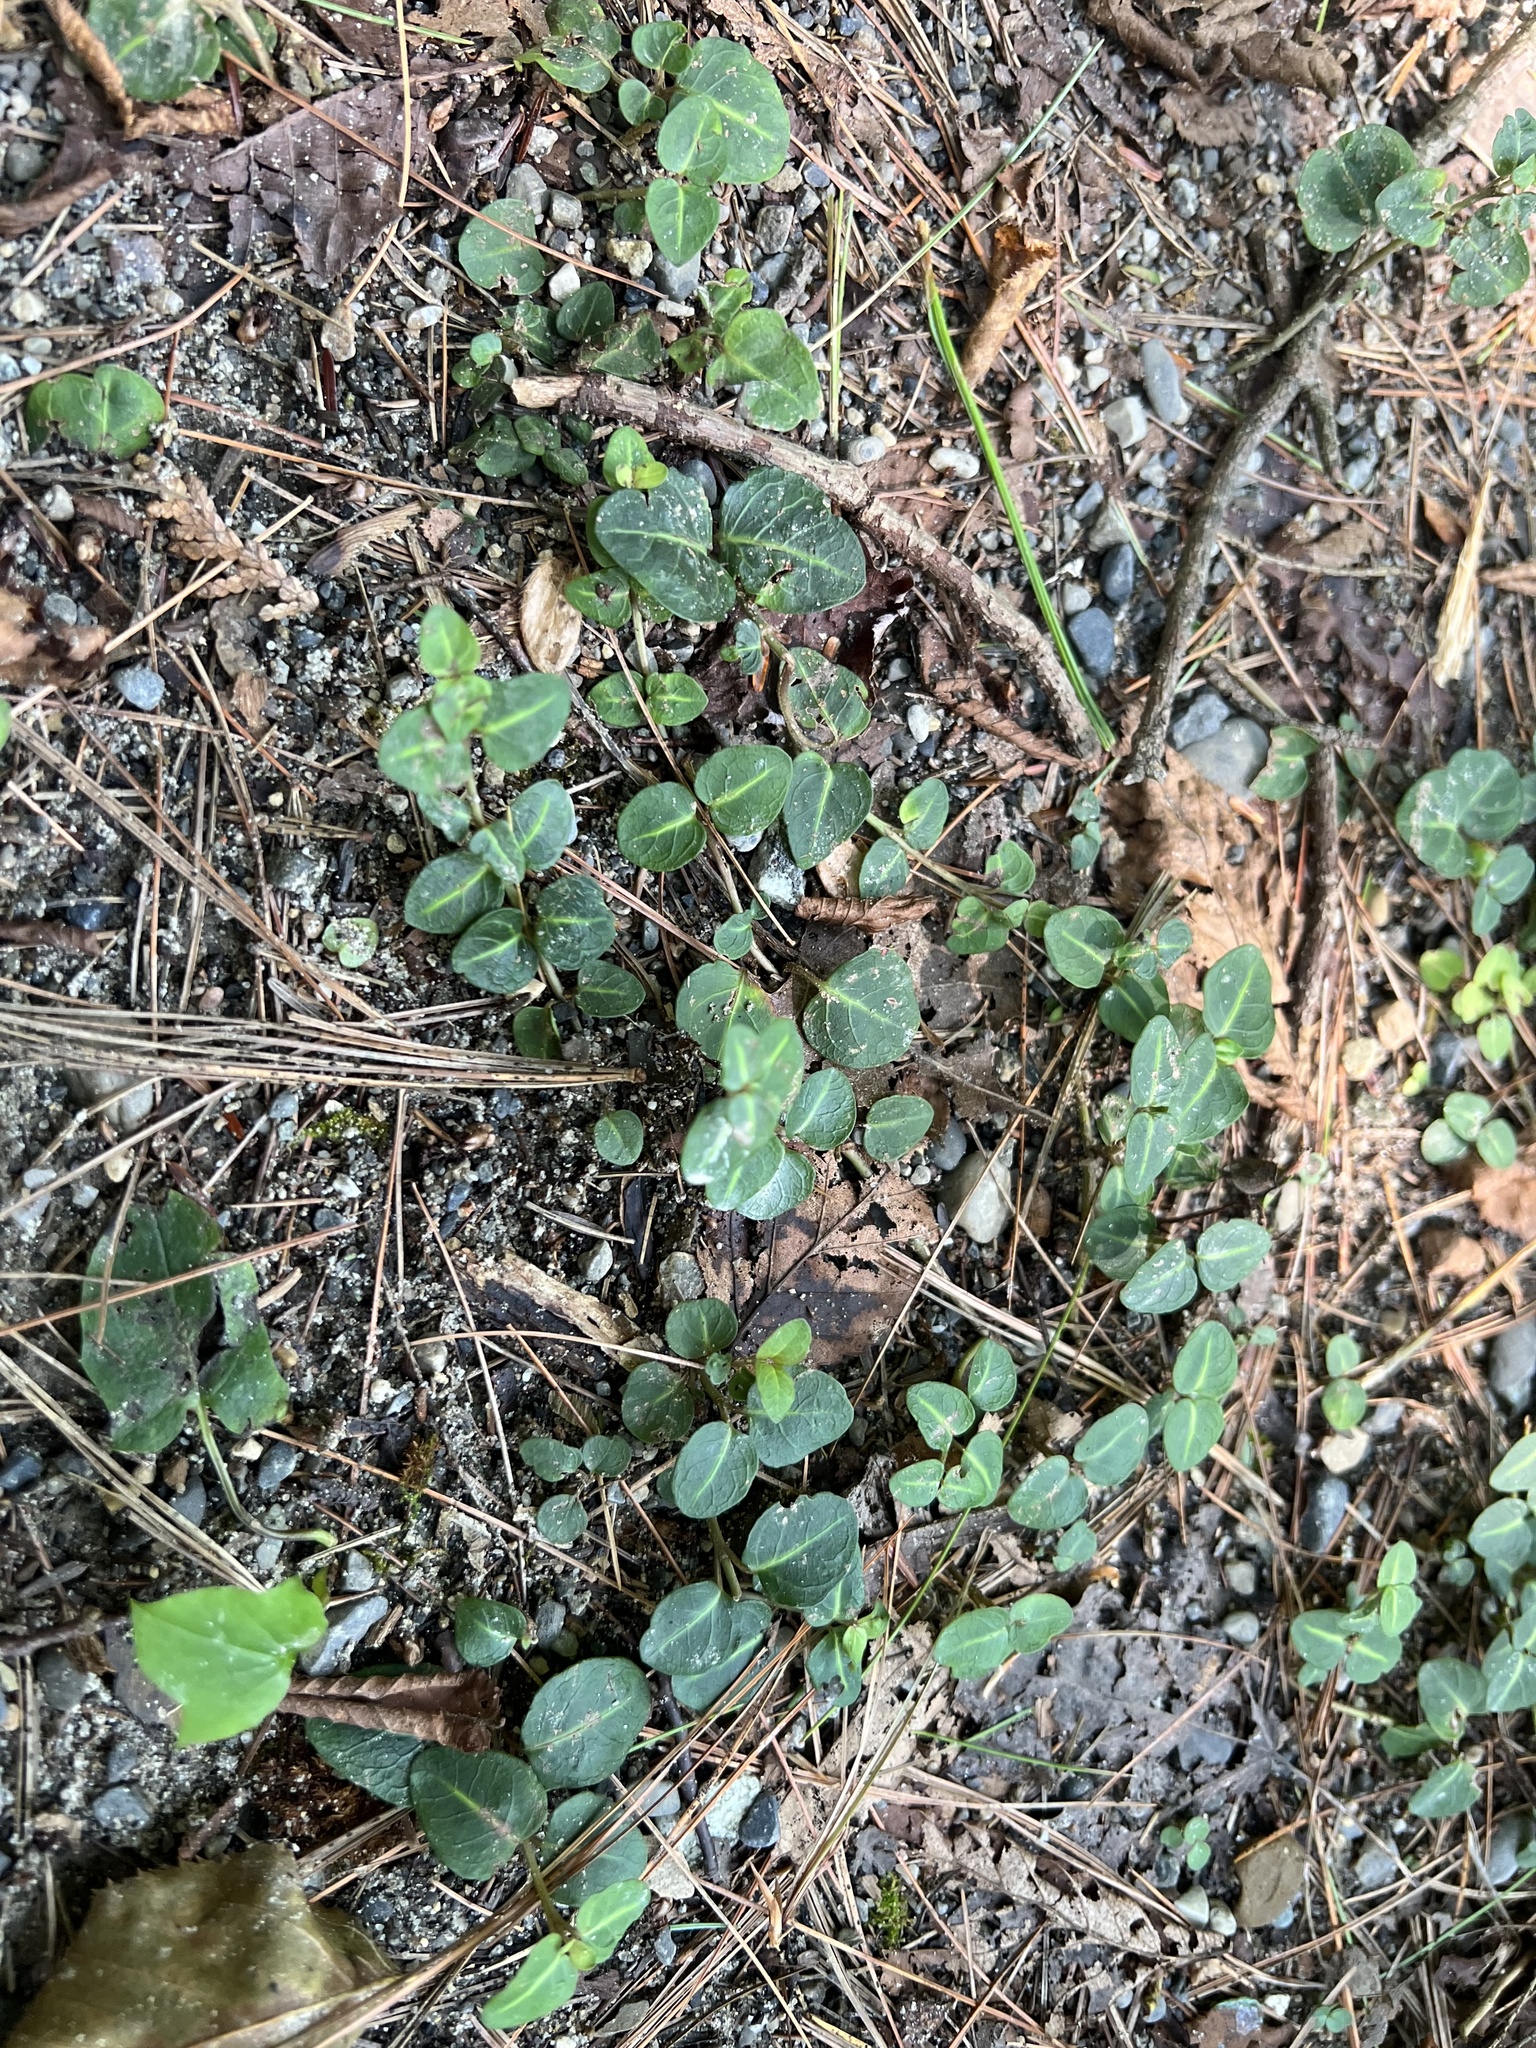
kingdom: Plantae
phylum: Tracheophyta
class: Magnoliopsida
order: Gentianales
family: Rubiaceae
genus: Mitchella
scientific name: Mitchella repens
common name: Partridge-berry
